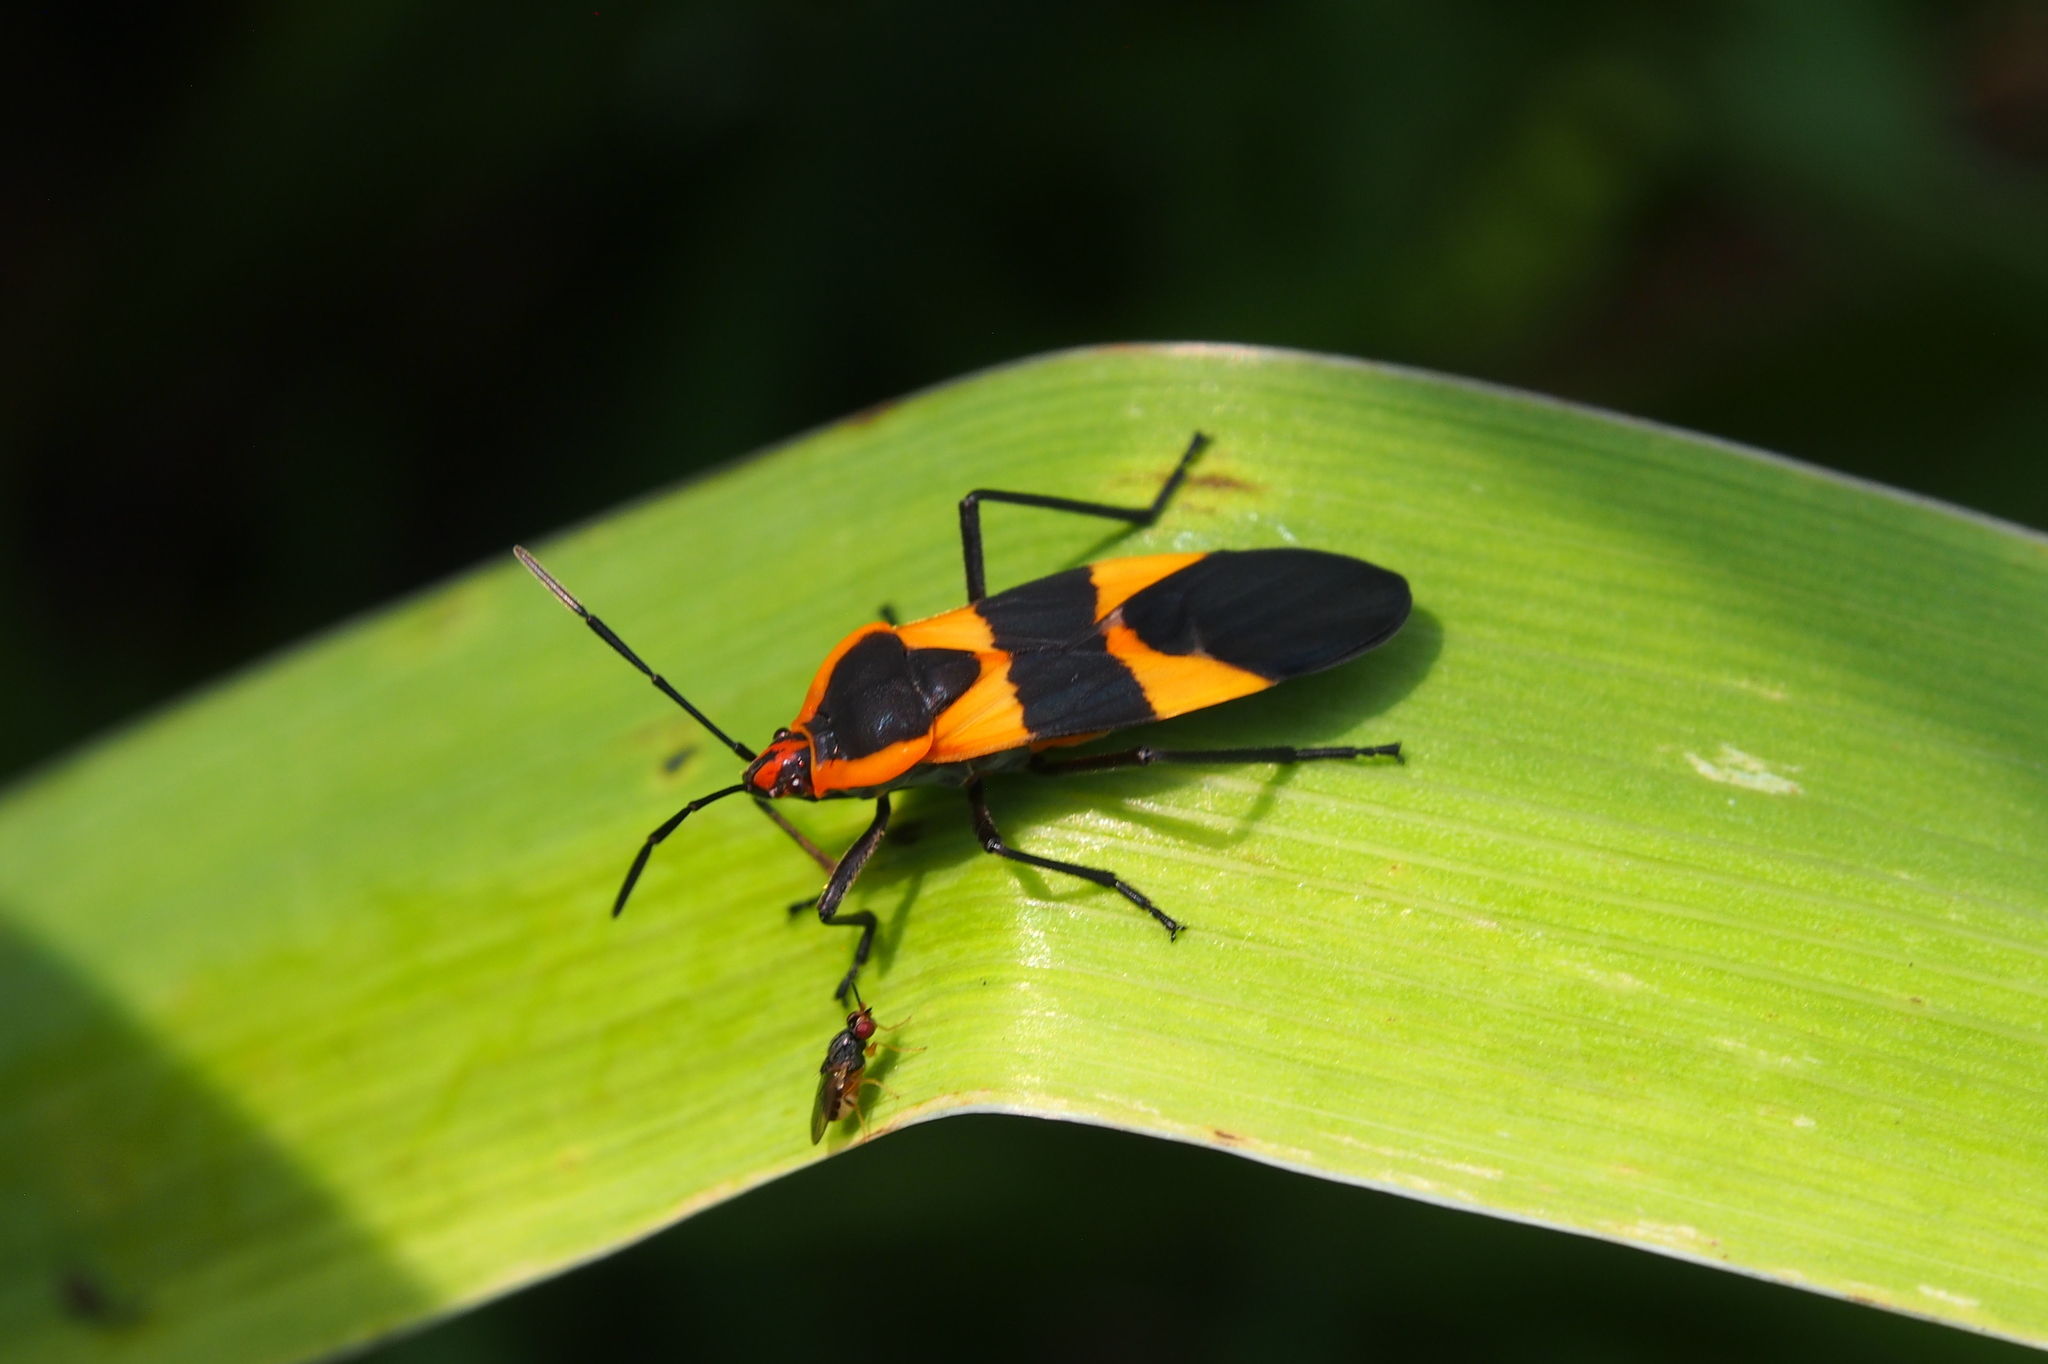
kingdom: Animalia
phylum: Arthropoda
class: Insecta
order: Hemiptera
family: Lygaeidae
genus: Oncopeltus
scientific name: Oncopeltus fasciatus
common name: Large milkweed bug
